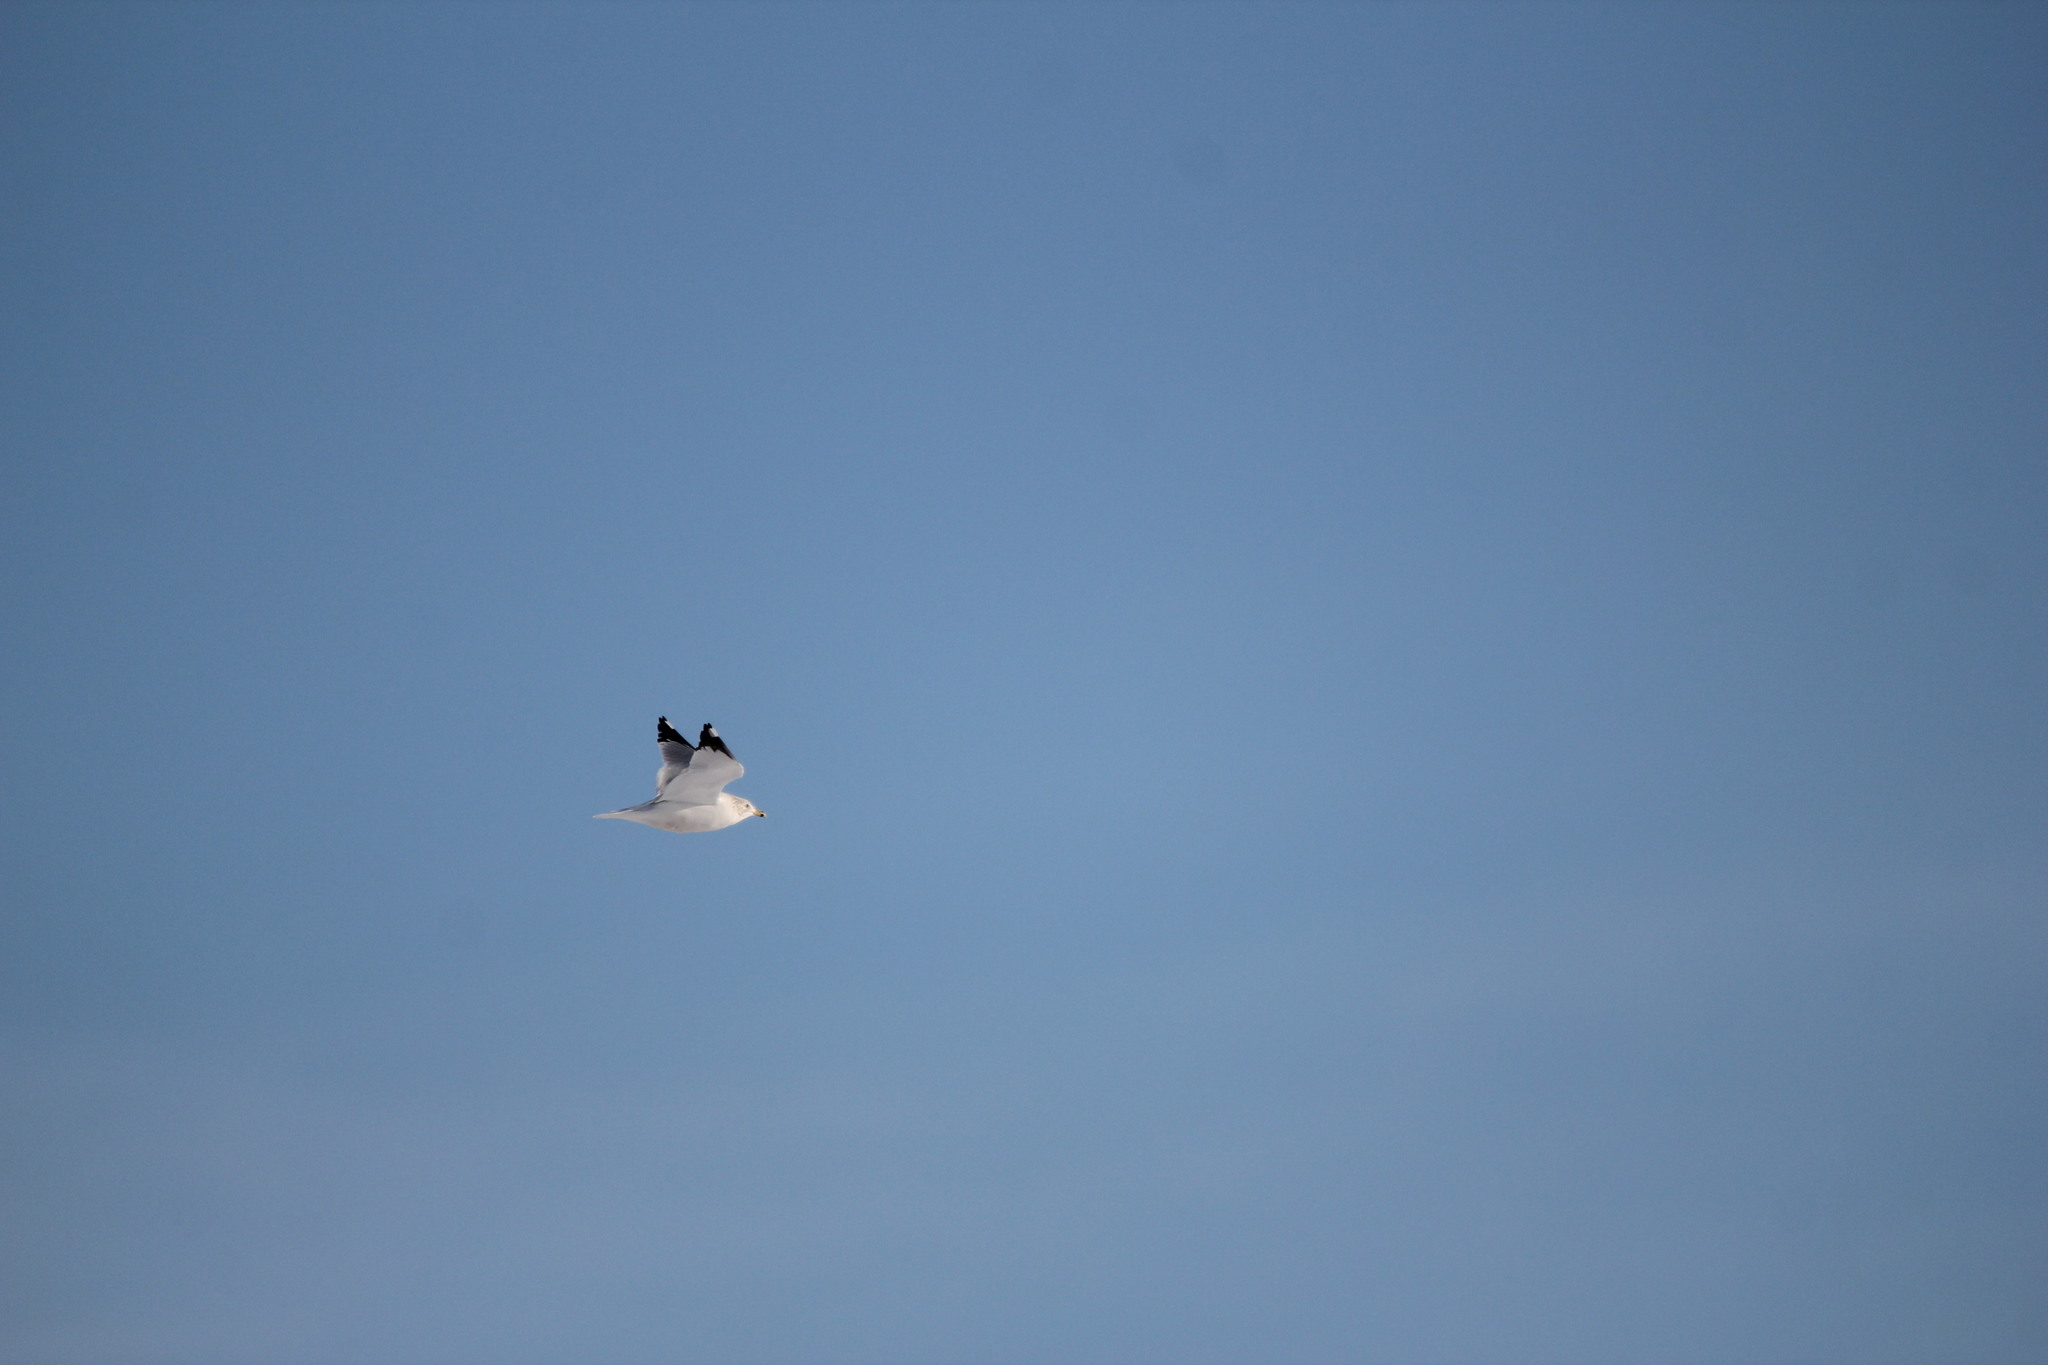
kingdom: Animalia
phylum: Chordata
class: Aves
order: Charadriiformes
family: Laridae
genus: Larus
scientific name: Larus delawarensis
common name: Ring-billed gull
